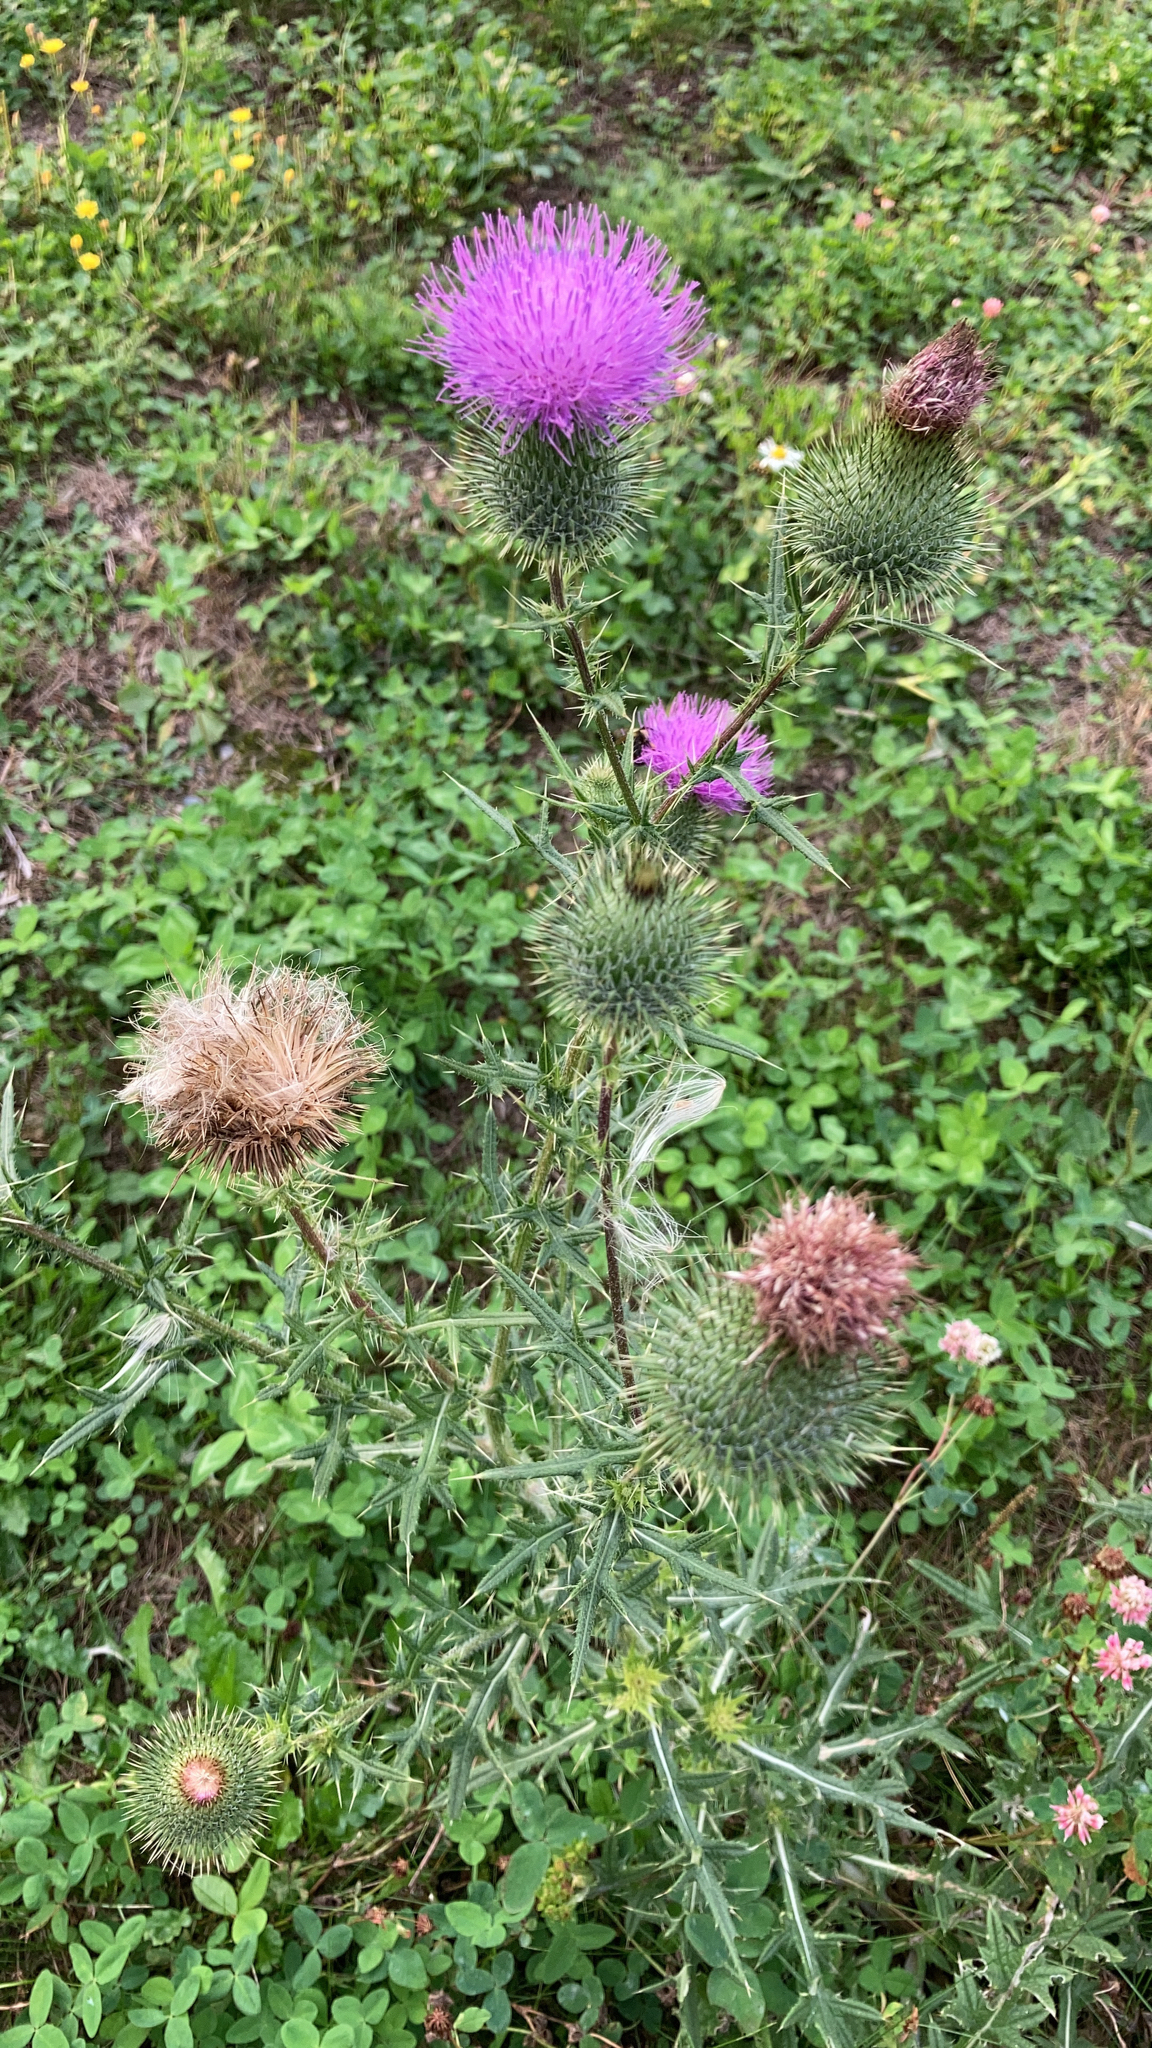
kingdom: Plantae
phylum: Tracheophyta
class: Magnoliopsida
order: Asterales
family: Asteraceae
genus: Cirsium
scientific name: Cirsium vulgare
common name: Bull thistle
